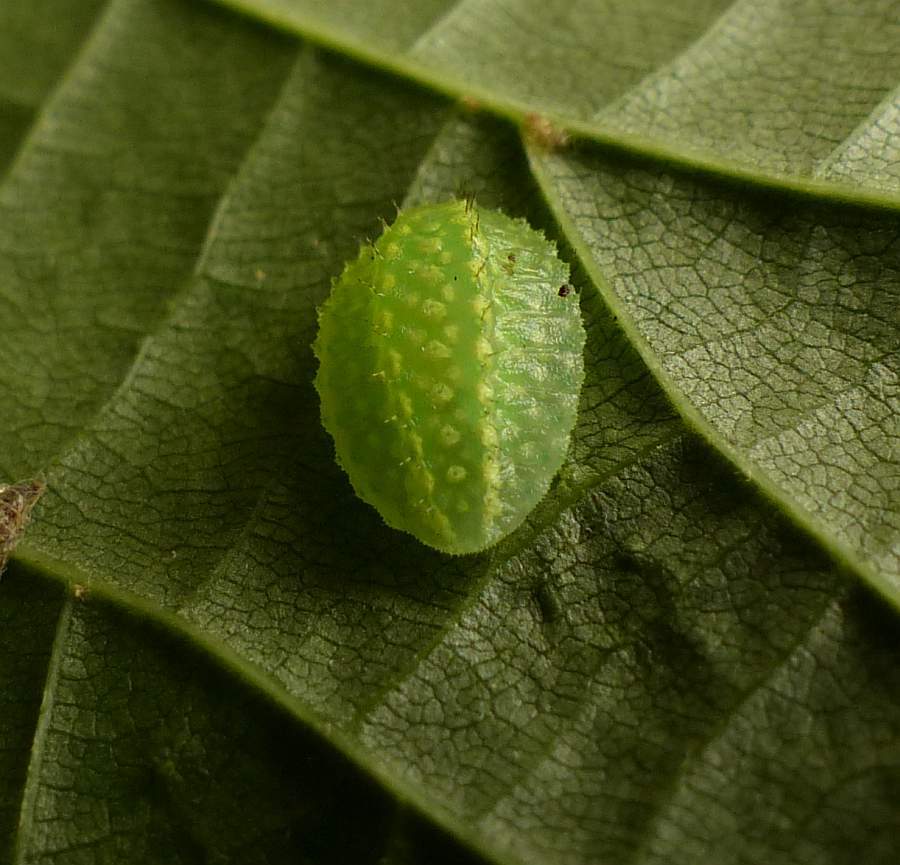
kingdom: Animalia
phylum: Arthropoda
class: Insecta
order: Lepidoptera
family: Limacodidae
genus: Lithacodes
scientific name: Lithacodes fasciola
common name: Yellow-shouldered slug moth
